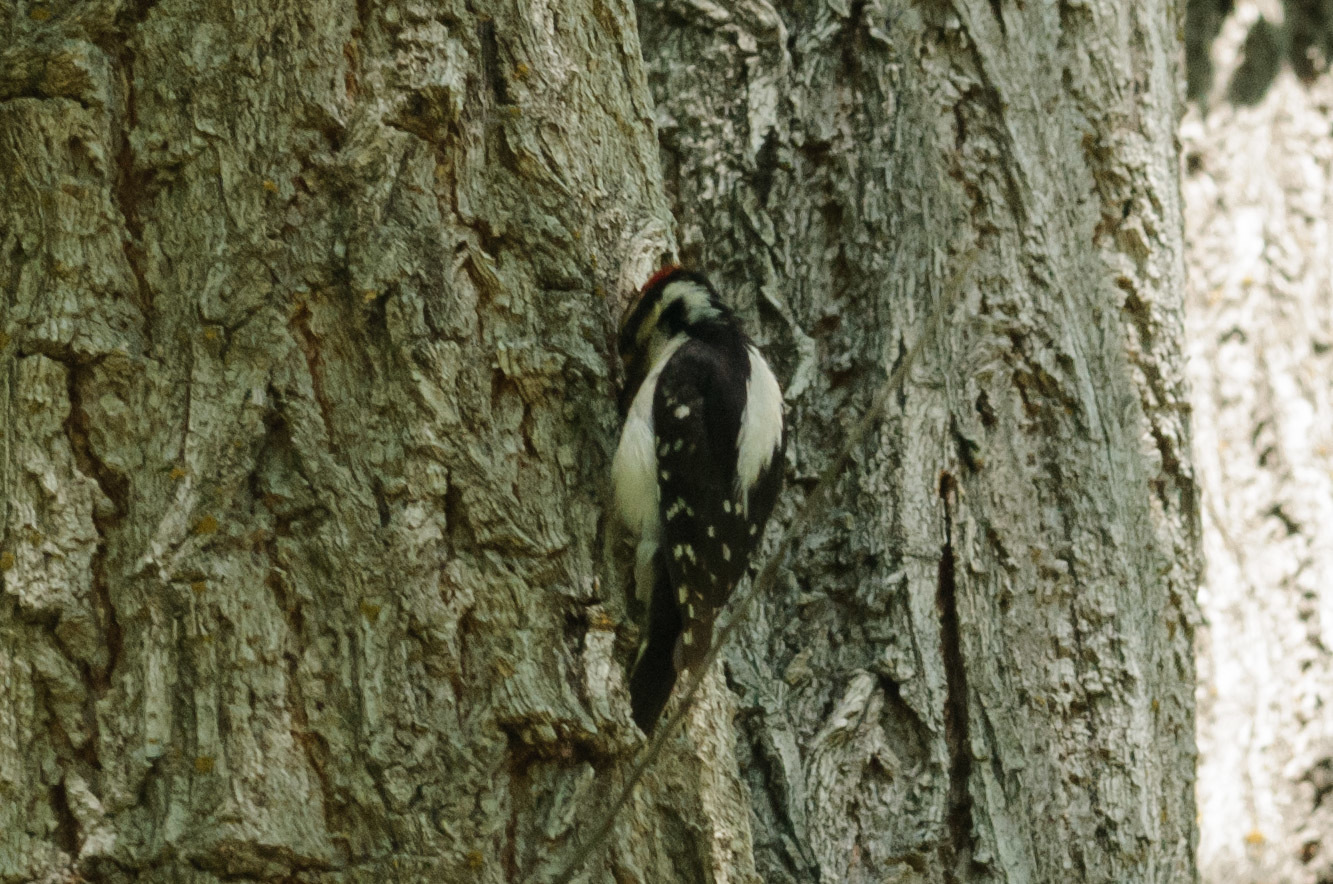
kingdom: Animalia
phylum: Chordata
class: Aves
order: Piciformes
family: Picidae
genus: Dryobates
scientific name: Dryobates pubescens
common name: Downy woodpecker
